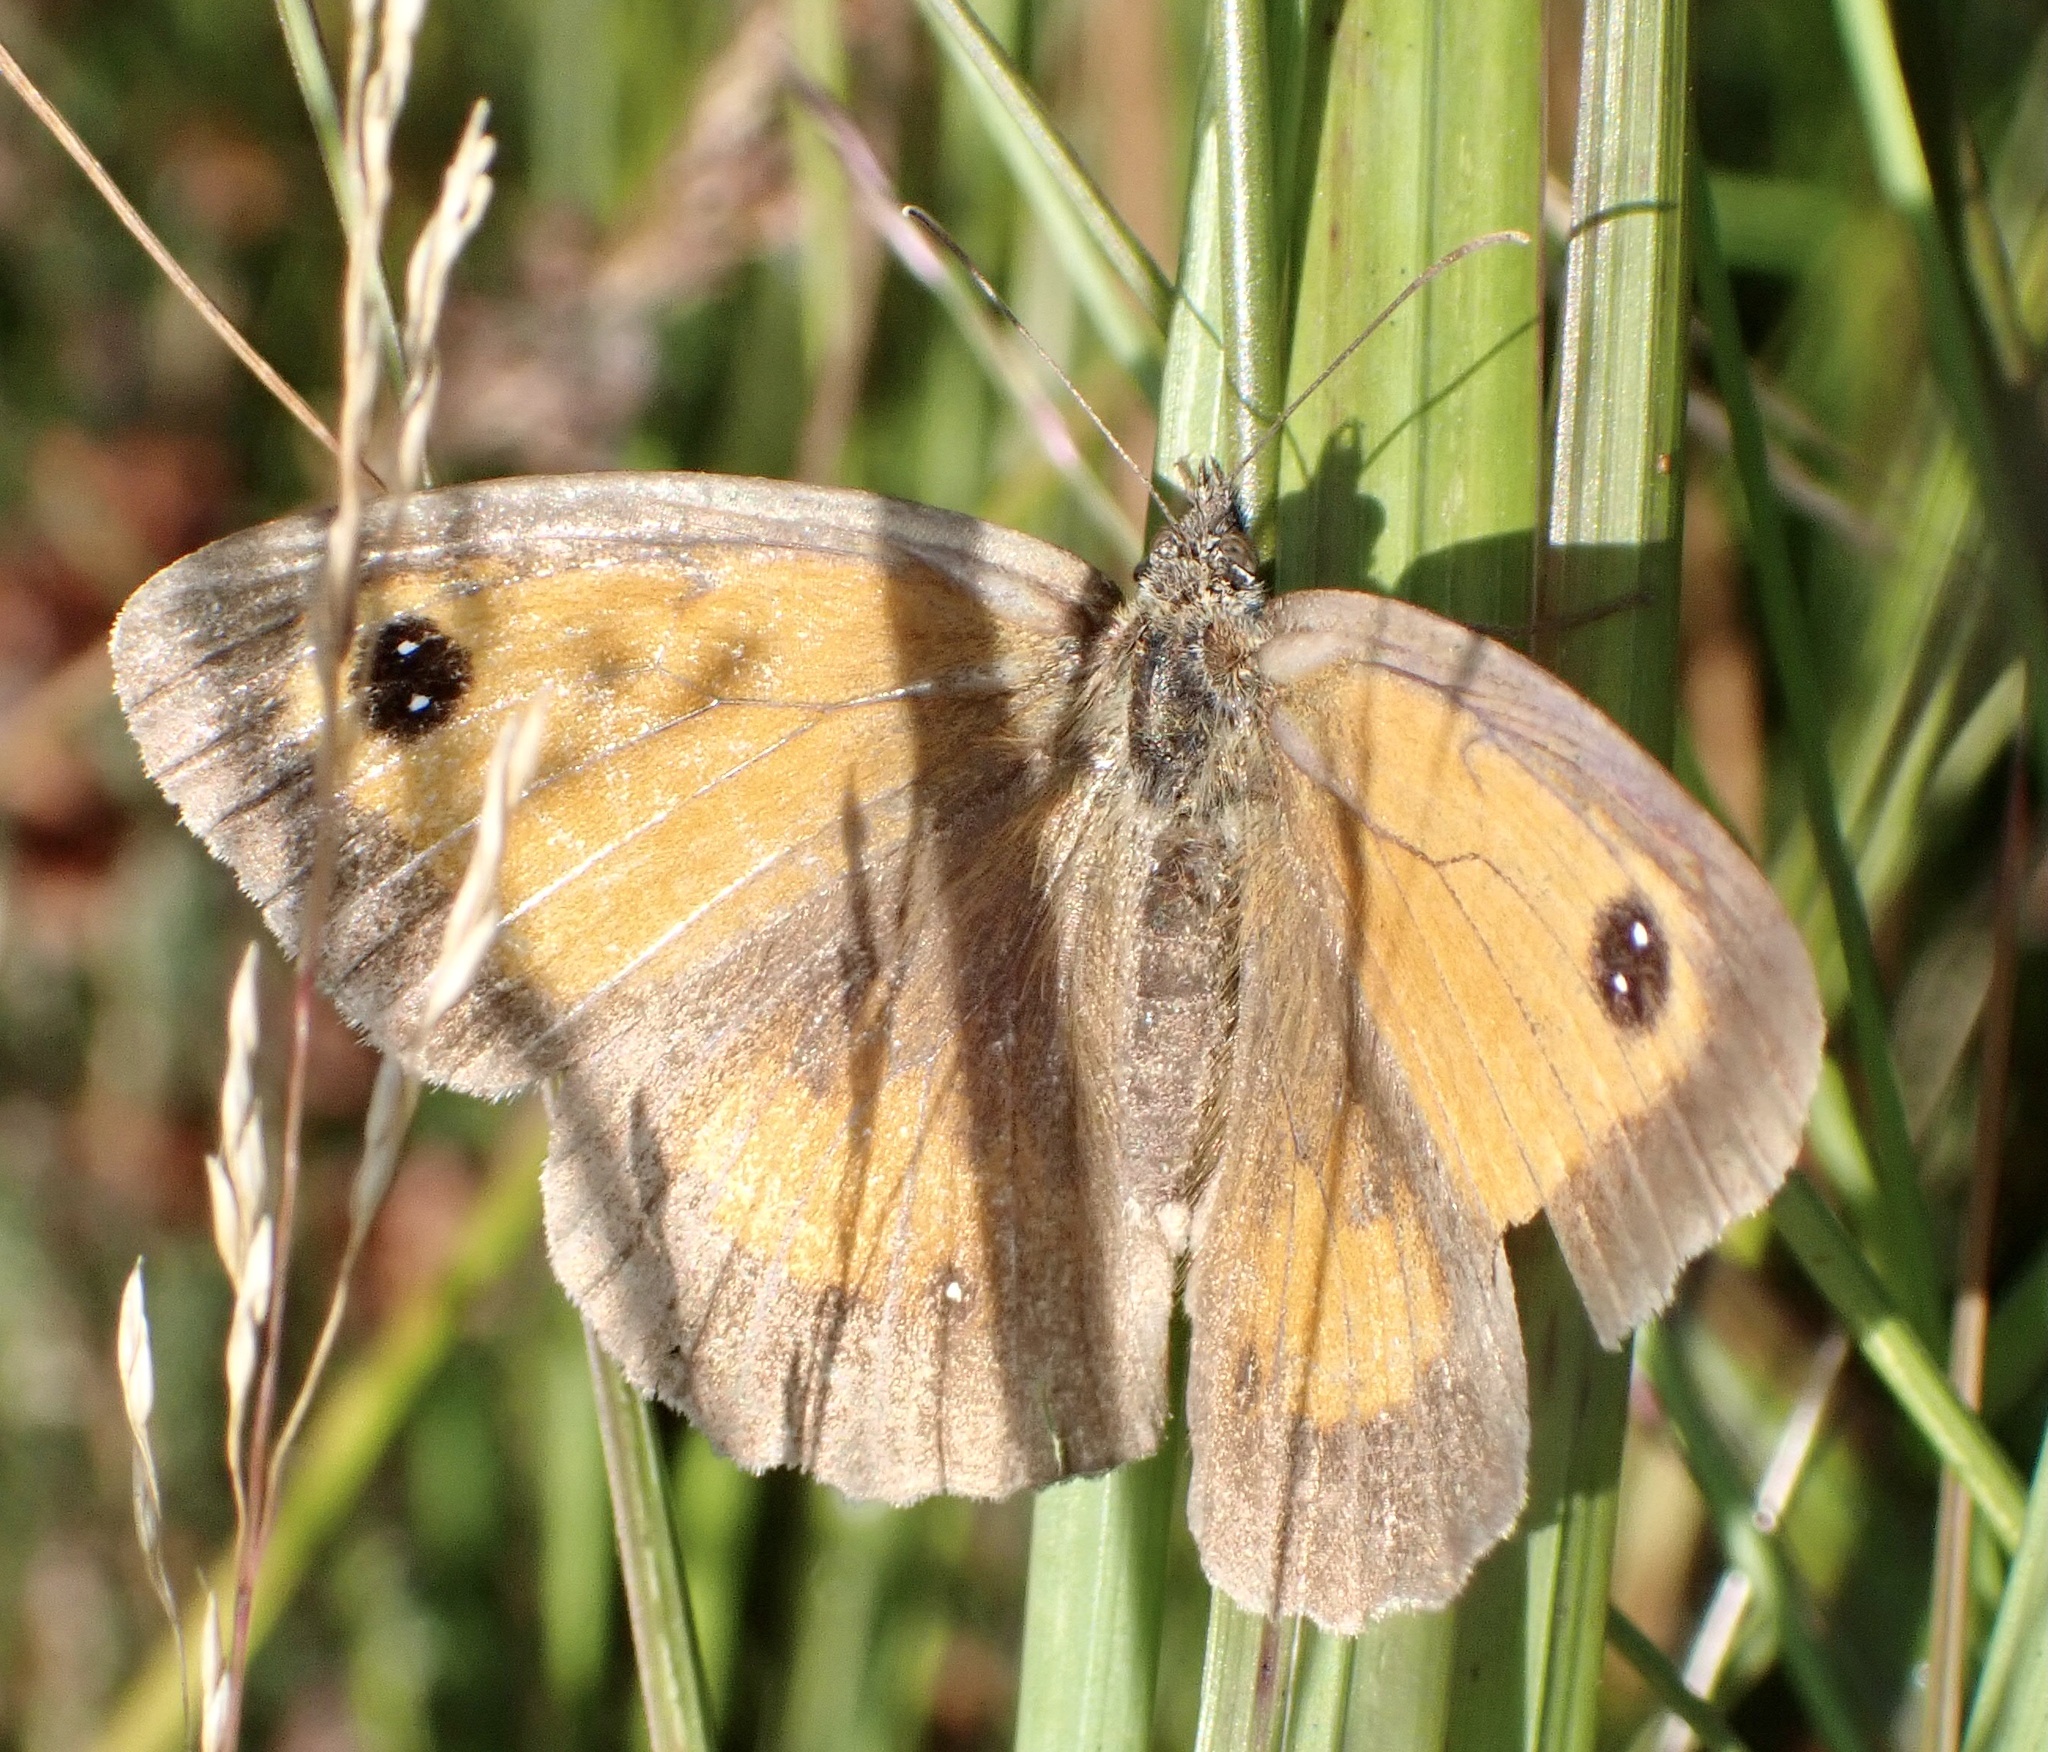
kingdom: Animalia
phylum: Arthropoda
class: Insecta
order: Lepidoptera
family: Nymphalidae
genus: Pyronia
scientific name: Pyronia tithonus
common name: Gatekeeper
